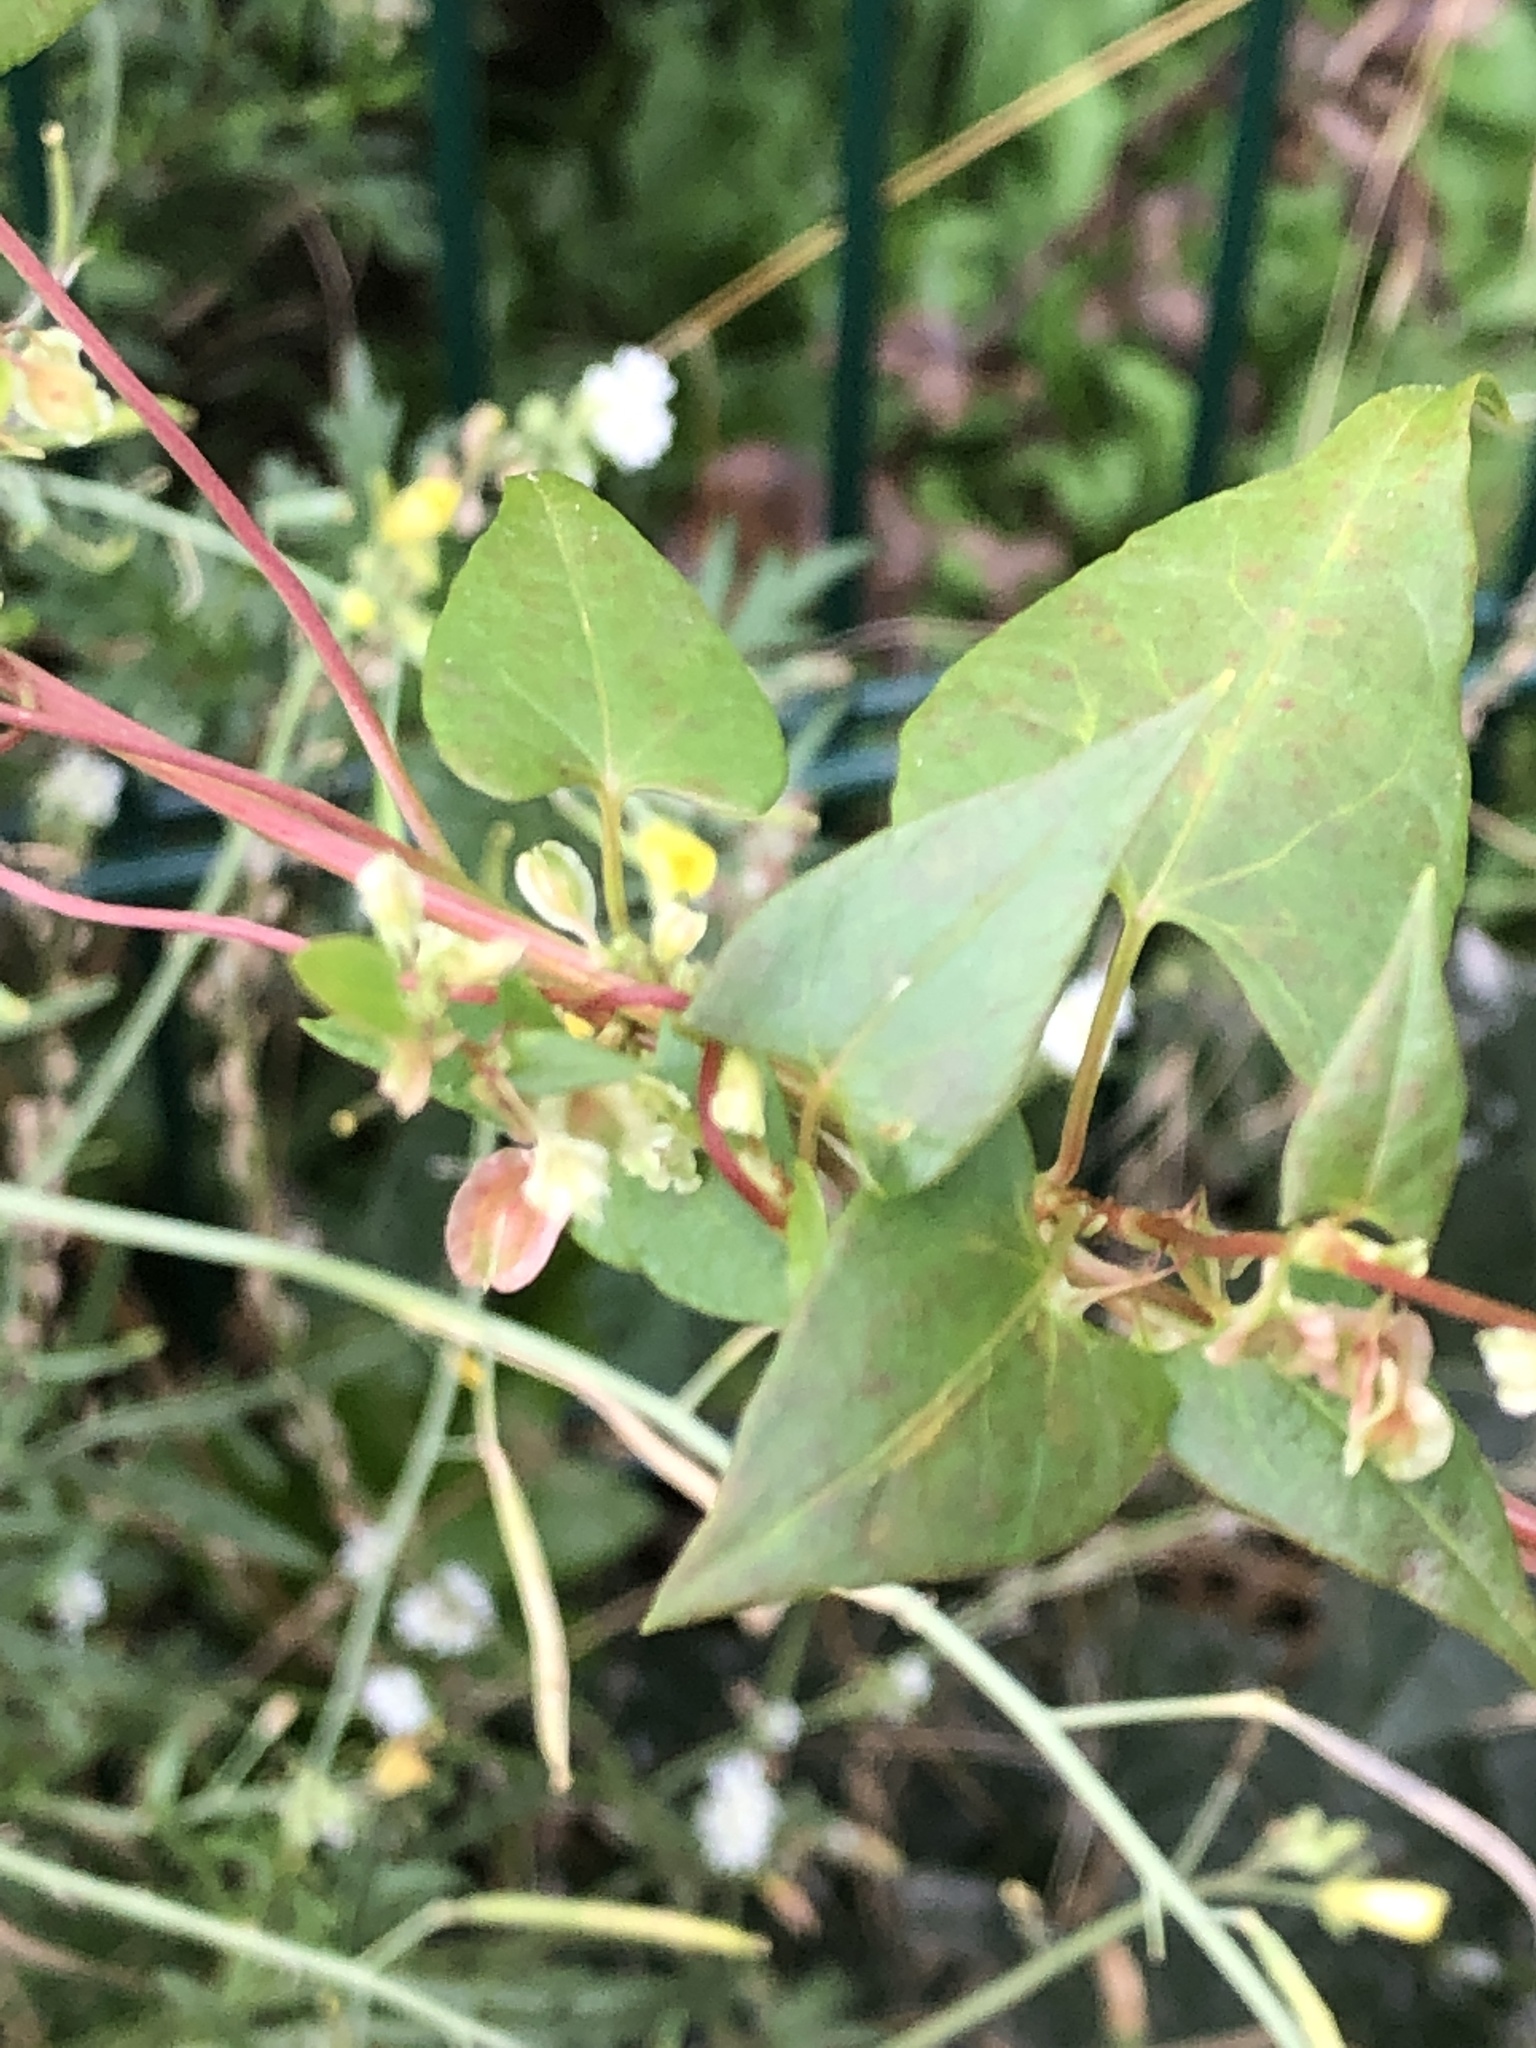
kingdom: Plantae
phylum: Tracheophyta
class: Magnoliopsida
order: Caryophyllales
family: Polygonaceae
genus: Fallopia
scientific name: Fallopia dumetorum
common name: Copse-bindweed
